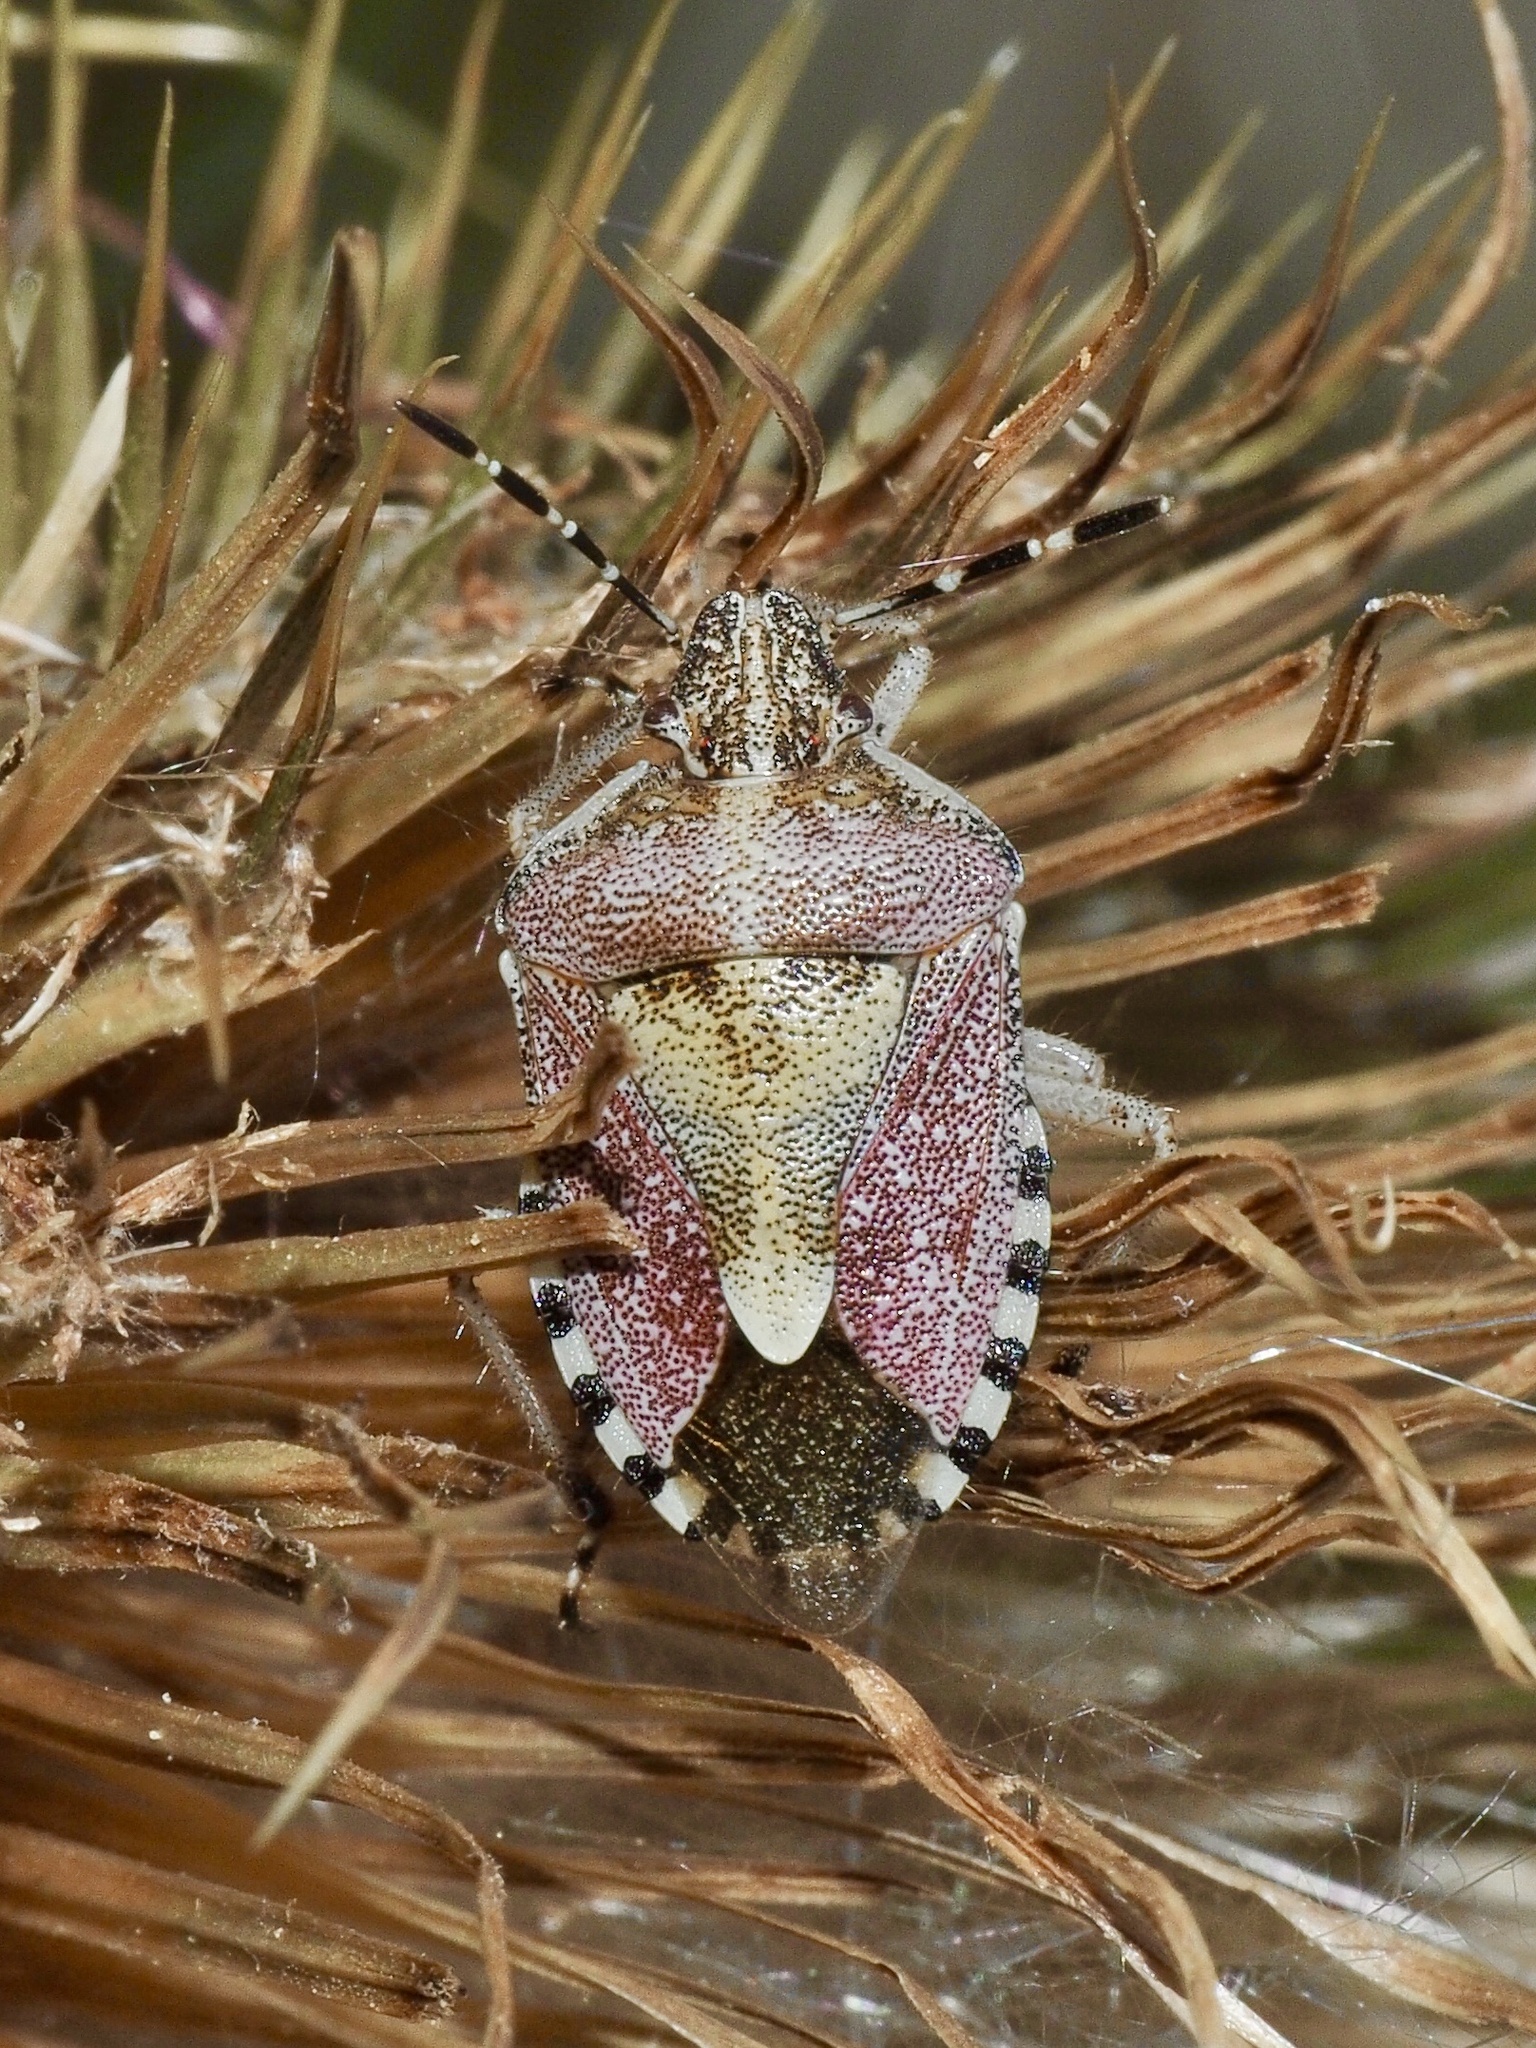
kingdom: Animalia
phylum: Arthropoda
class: Insecta
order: Hemiptera
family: Pentatomidae
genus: Dolycoris
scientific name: Dolycoris baccarum
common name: Sloe bug
